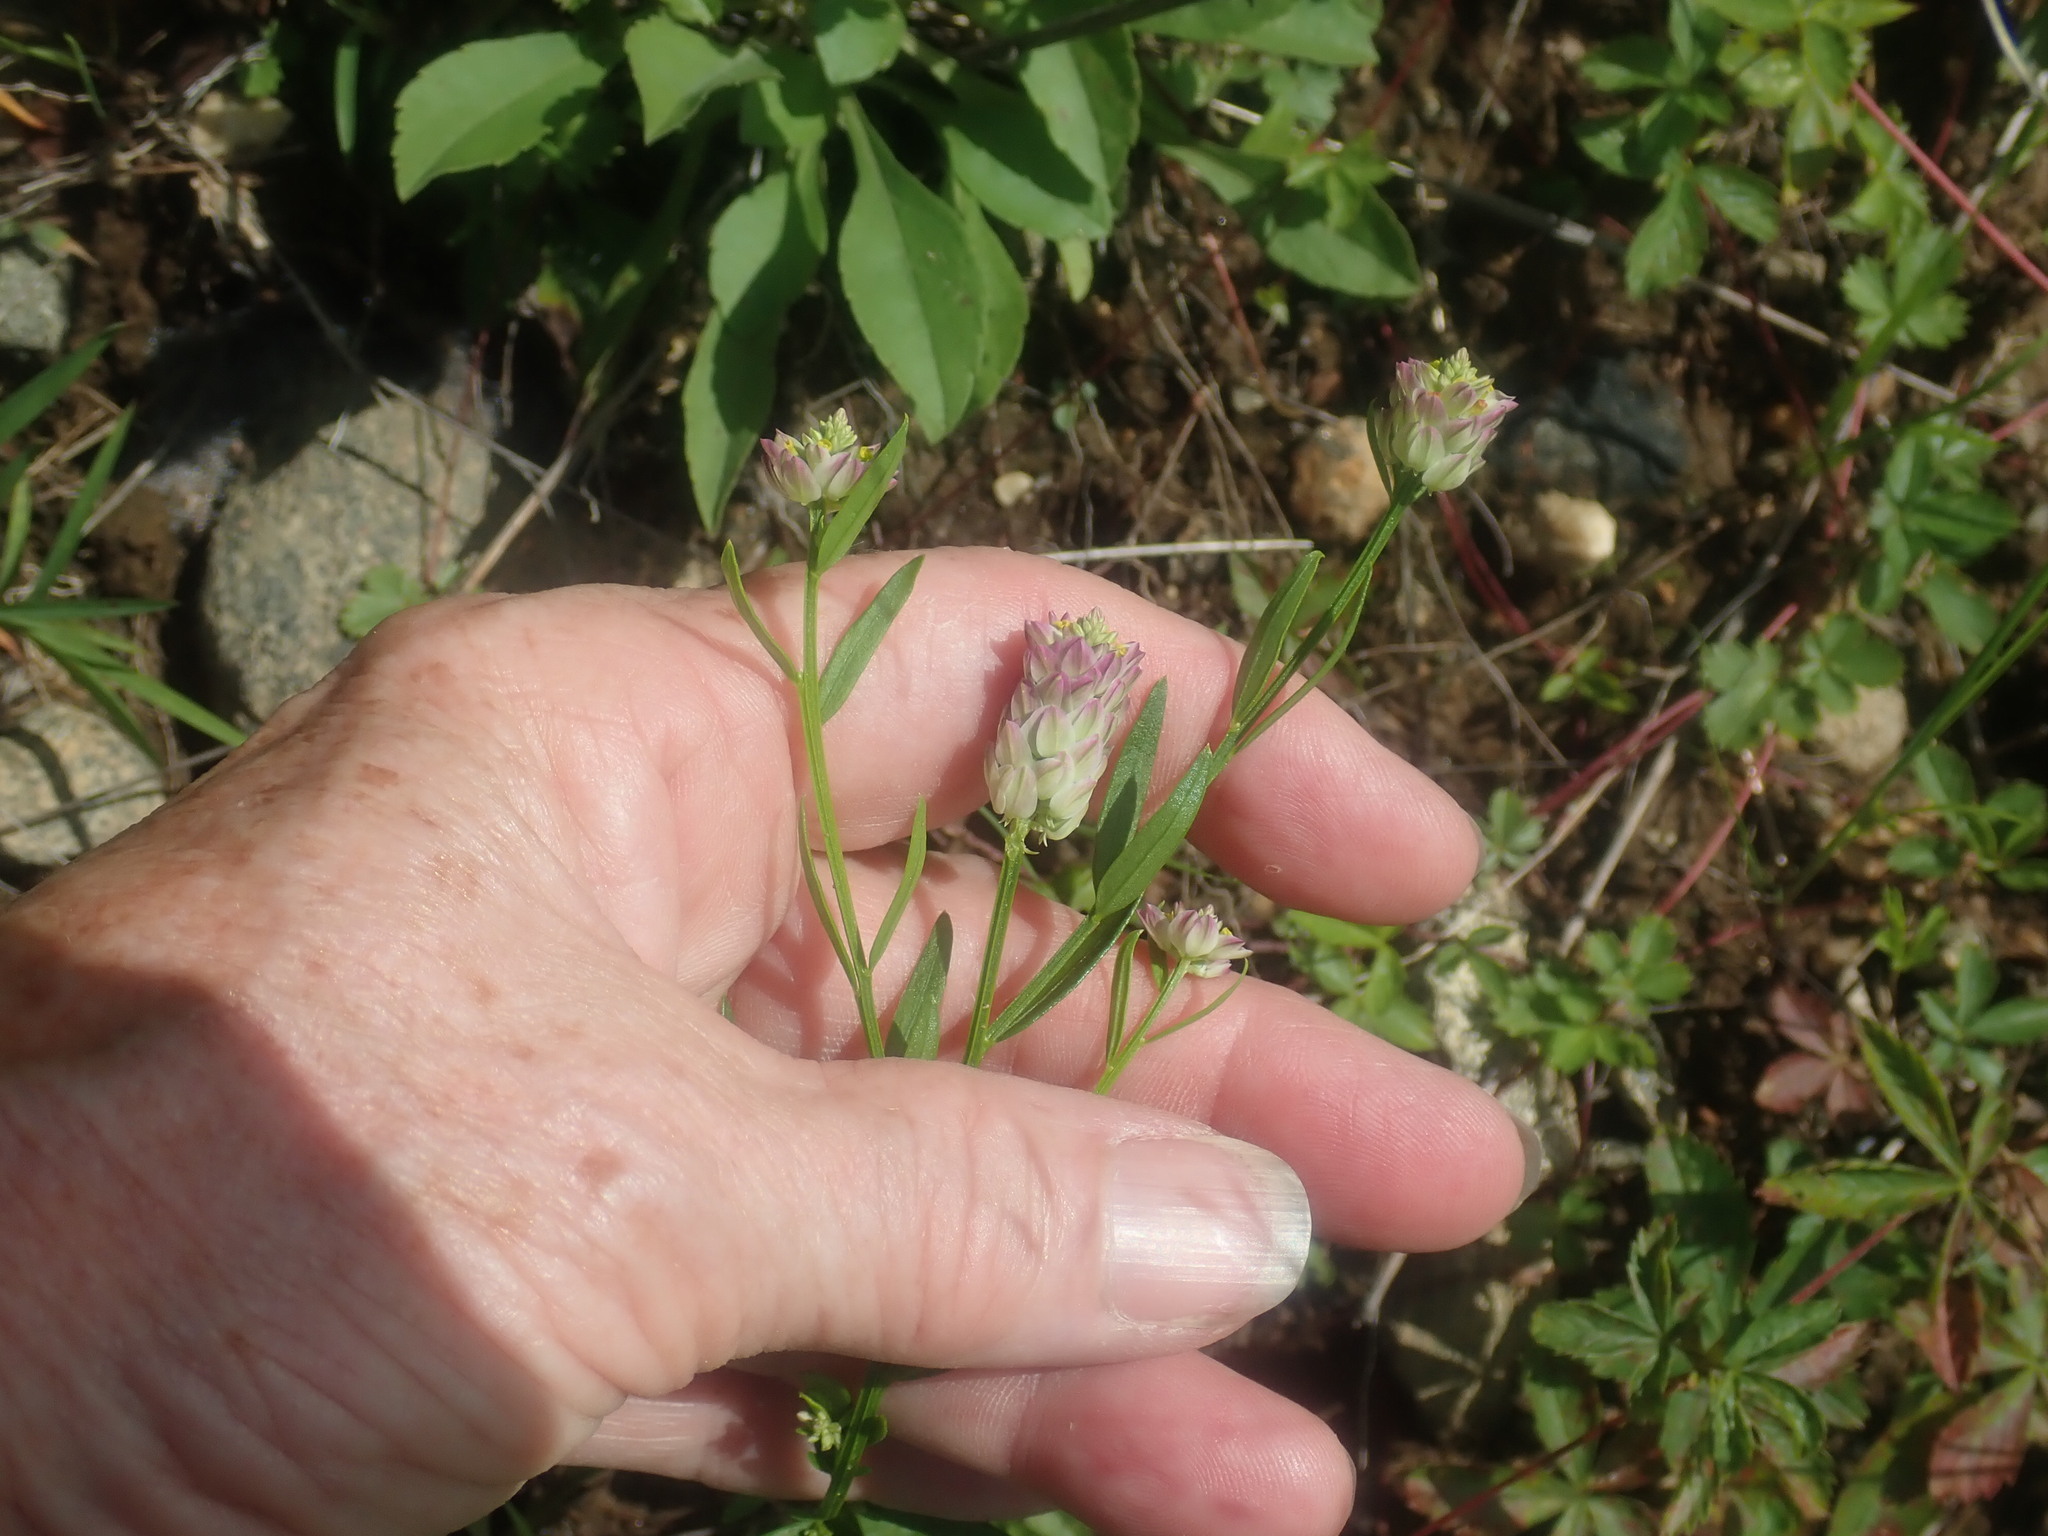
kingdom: Plantae
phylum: Tracheophyta
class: Magnoliopsida
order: Fabales
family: Polygalaceae
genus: Polygala
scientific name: Polygala sanguinea
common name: Blood milkwort
